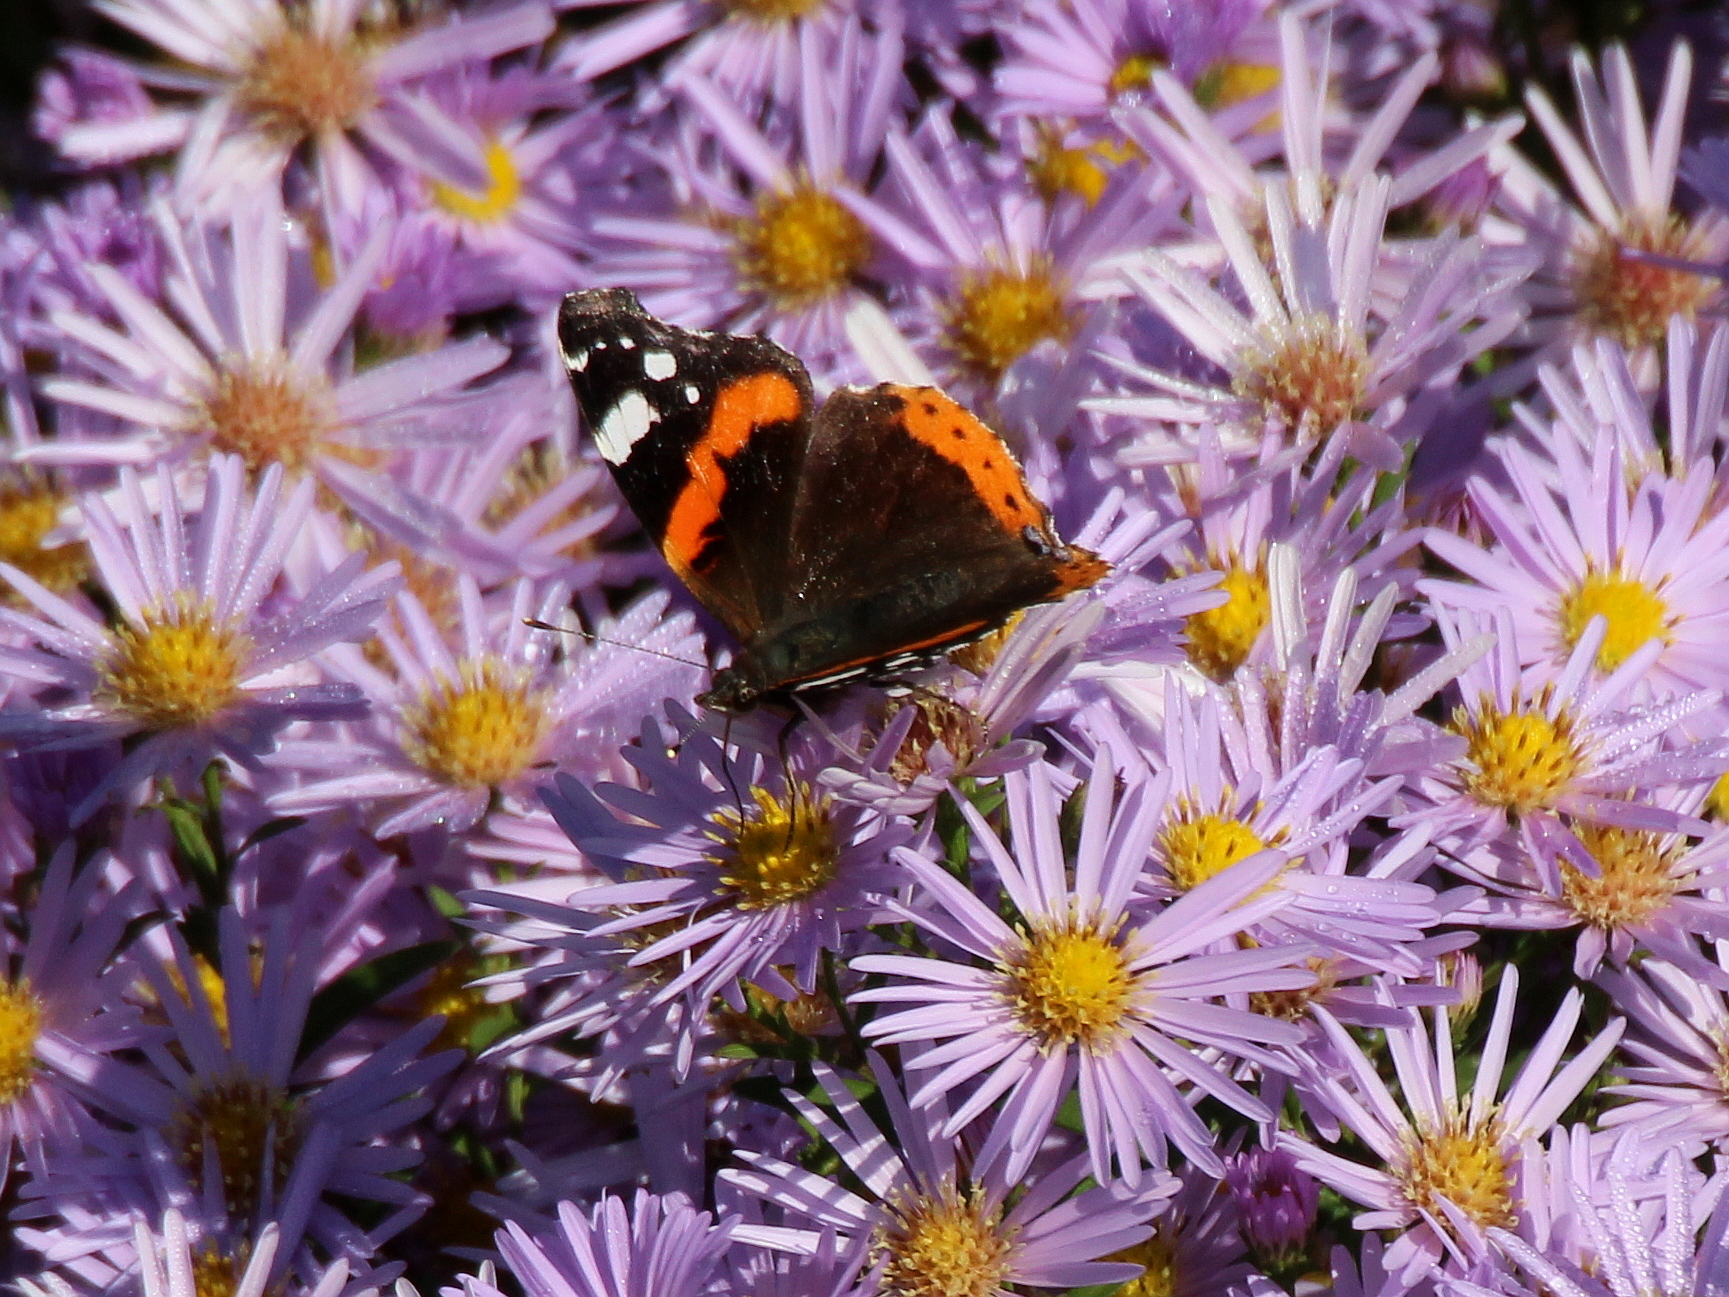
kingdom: Animalia
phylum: Arthropoda
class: Insecta
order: Lepidoptera
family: Nymphalidae
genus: Vanessa
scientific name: Vanessa atalanta
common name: Red admiral
